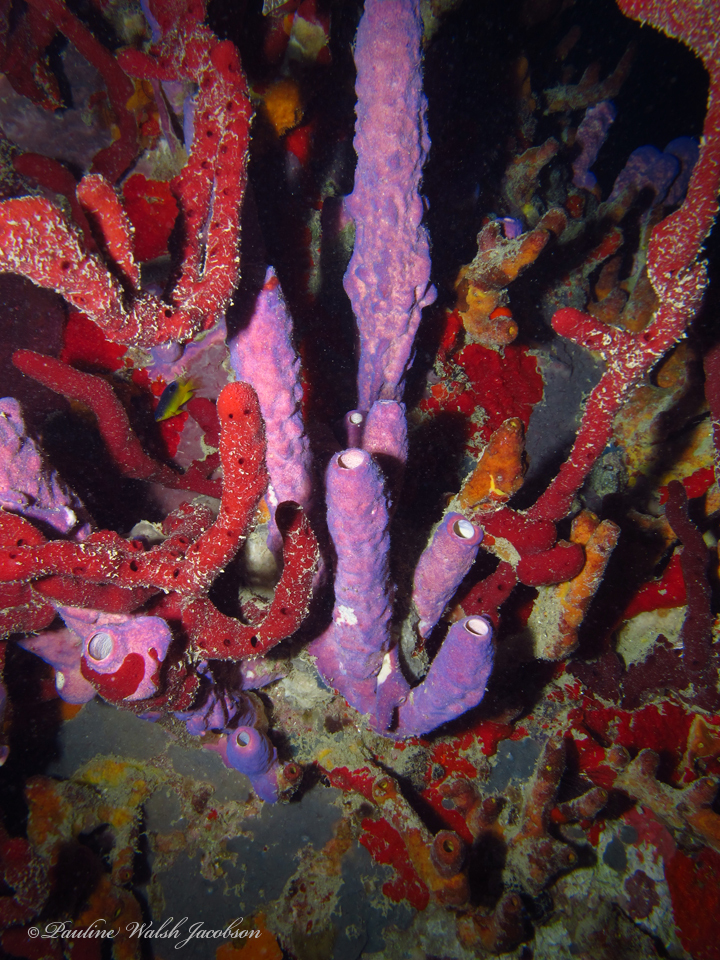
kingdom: Animalia
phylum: Porifera
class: Demospongiae
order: Verongiida
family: Aplysinidae
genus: Aplysina
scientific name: Aplysina archeri
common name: Stove-pipe sponge
